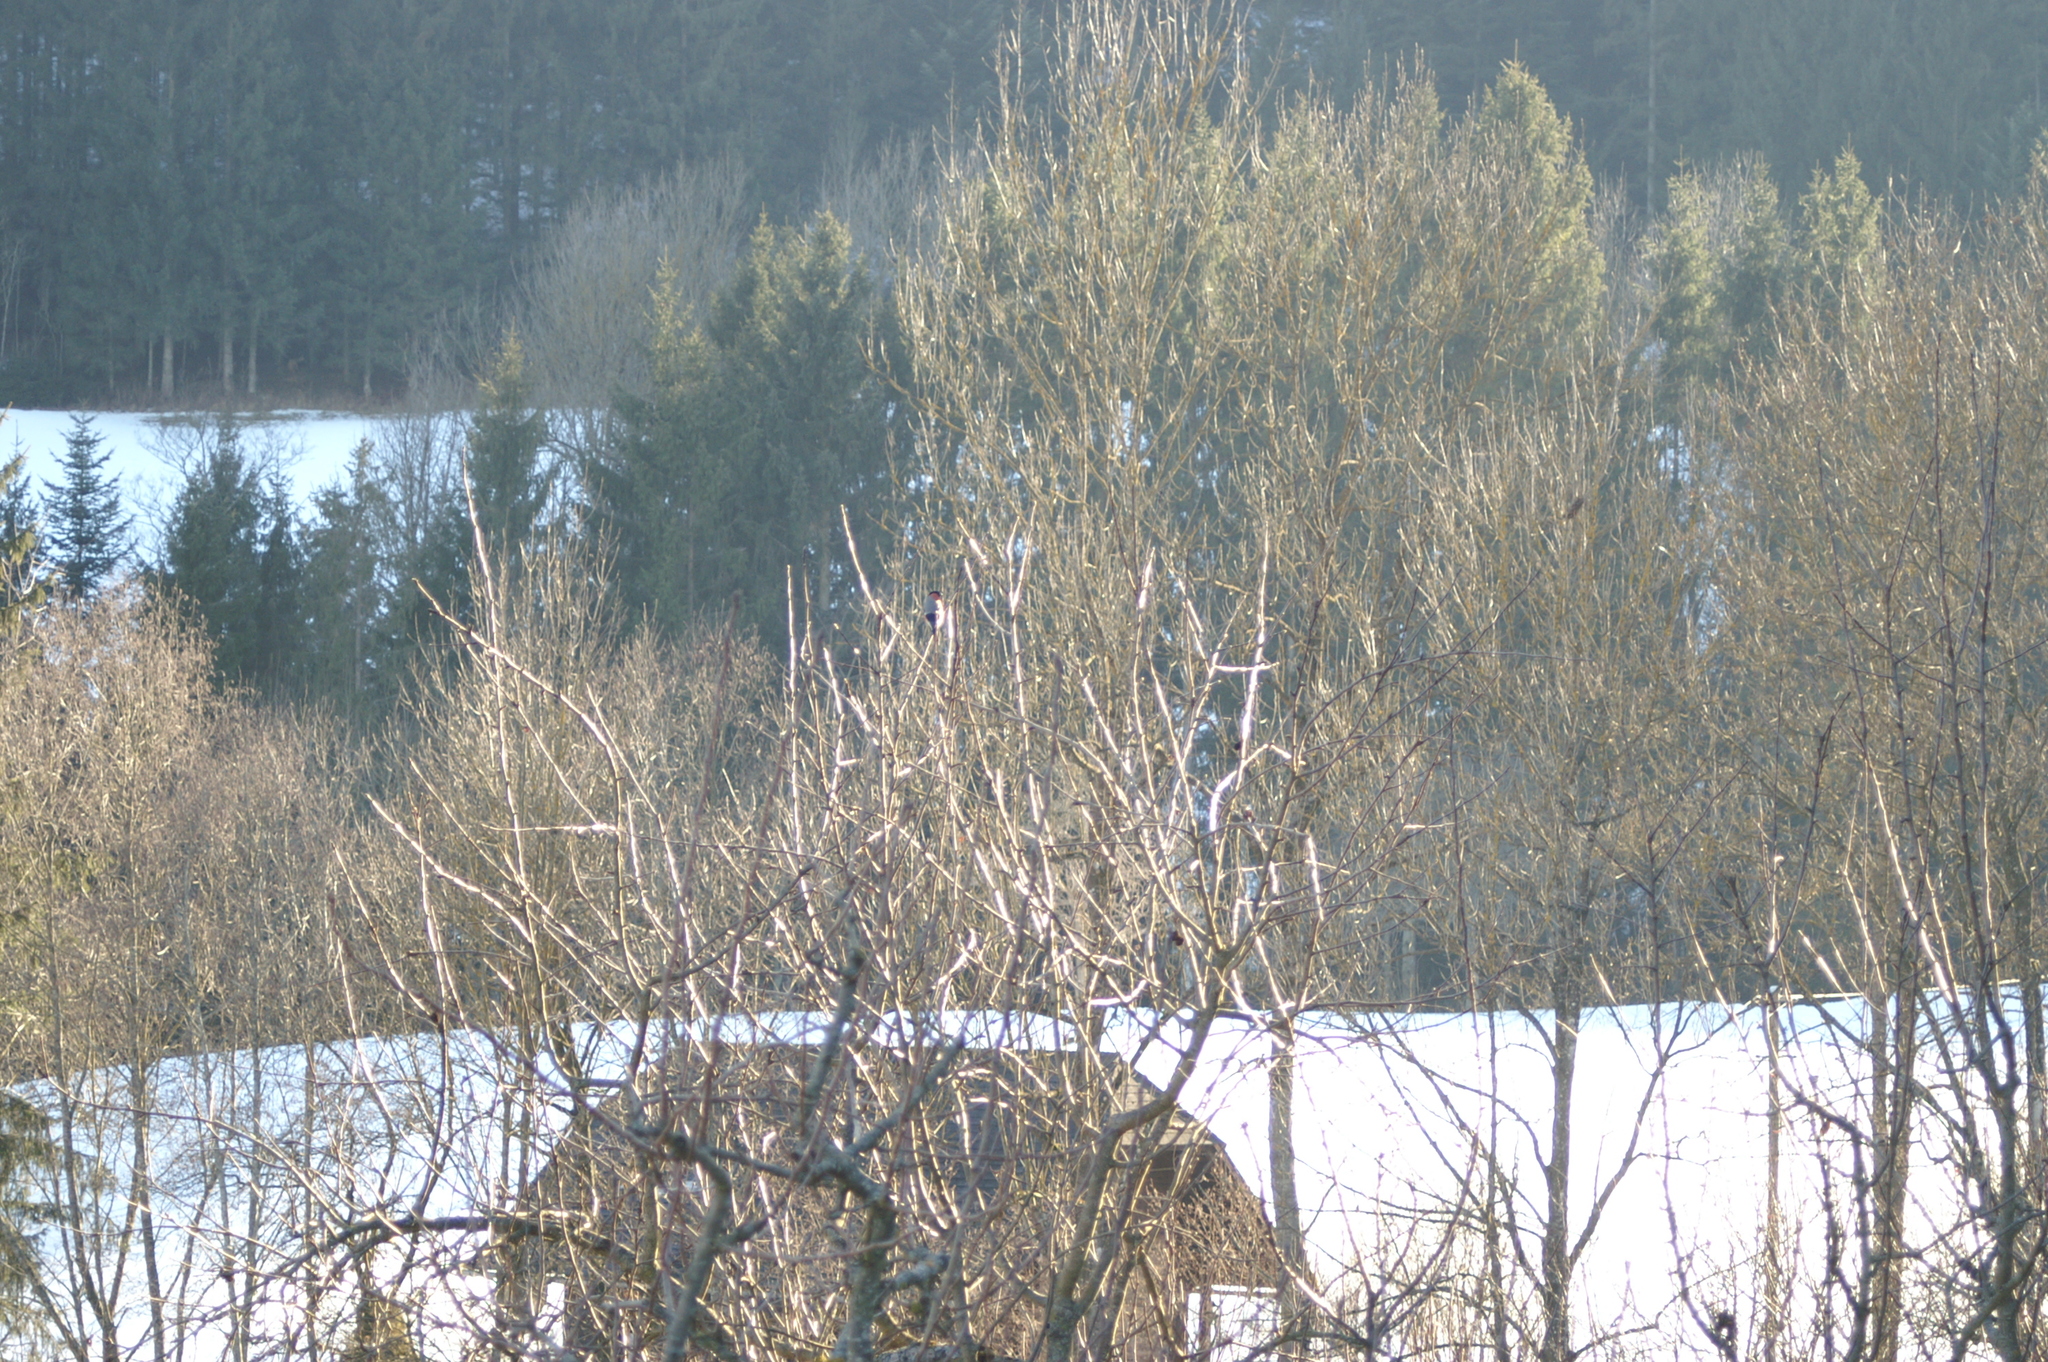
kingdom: Animalia
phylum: Chordata
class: Aves
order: Passeriformes
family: Fringillidae
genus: Pyrrhula
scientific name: Pyrrhula pyrrhula
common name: Eurasian bullfinch
